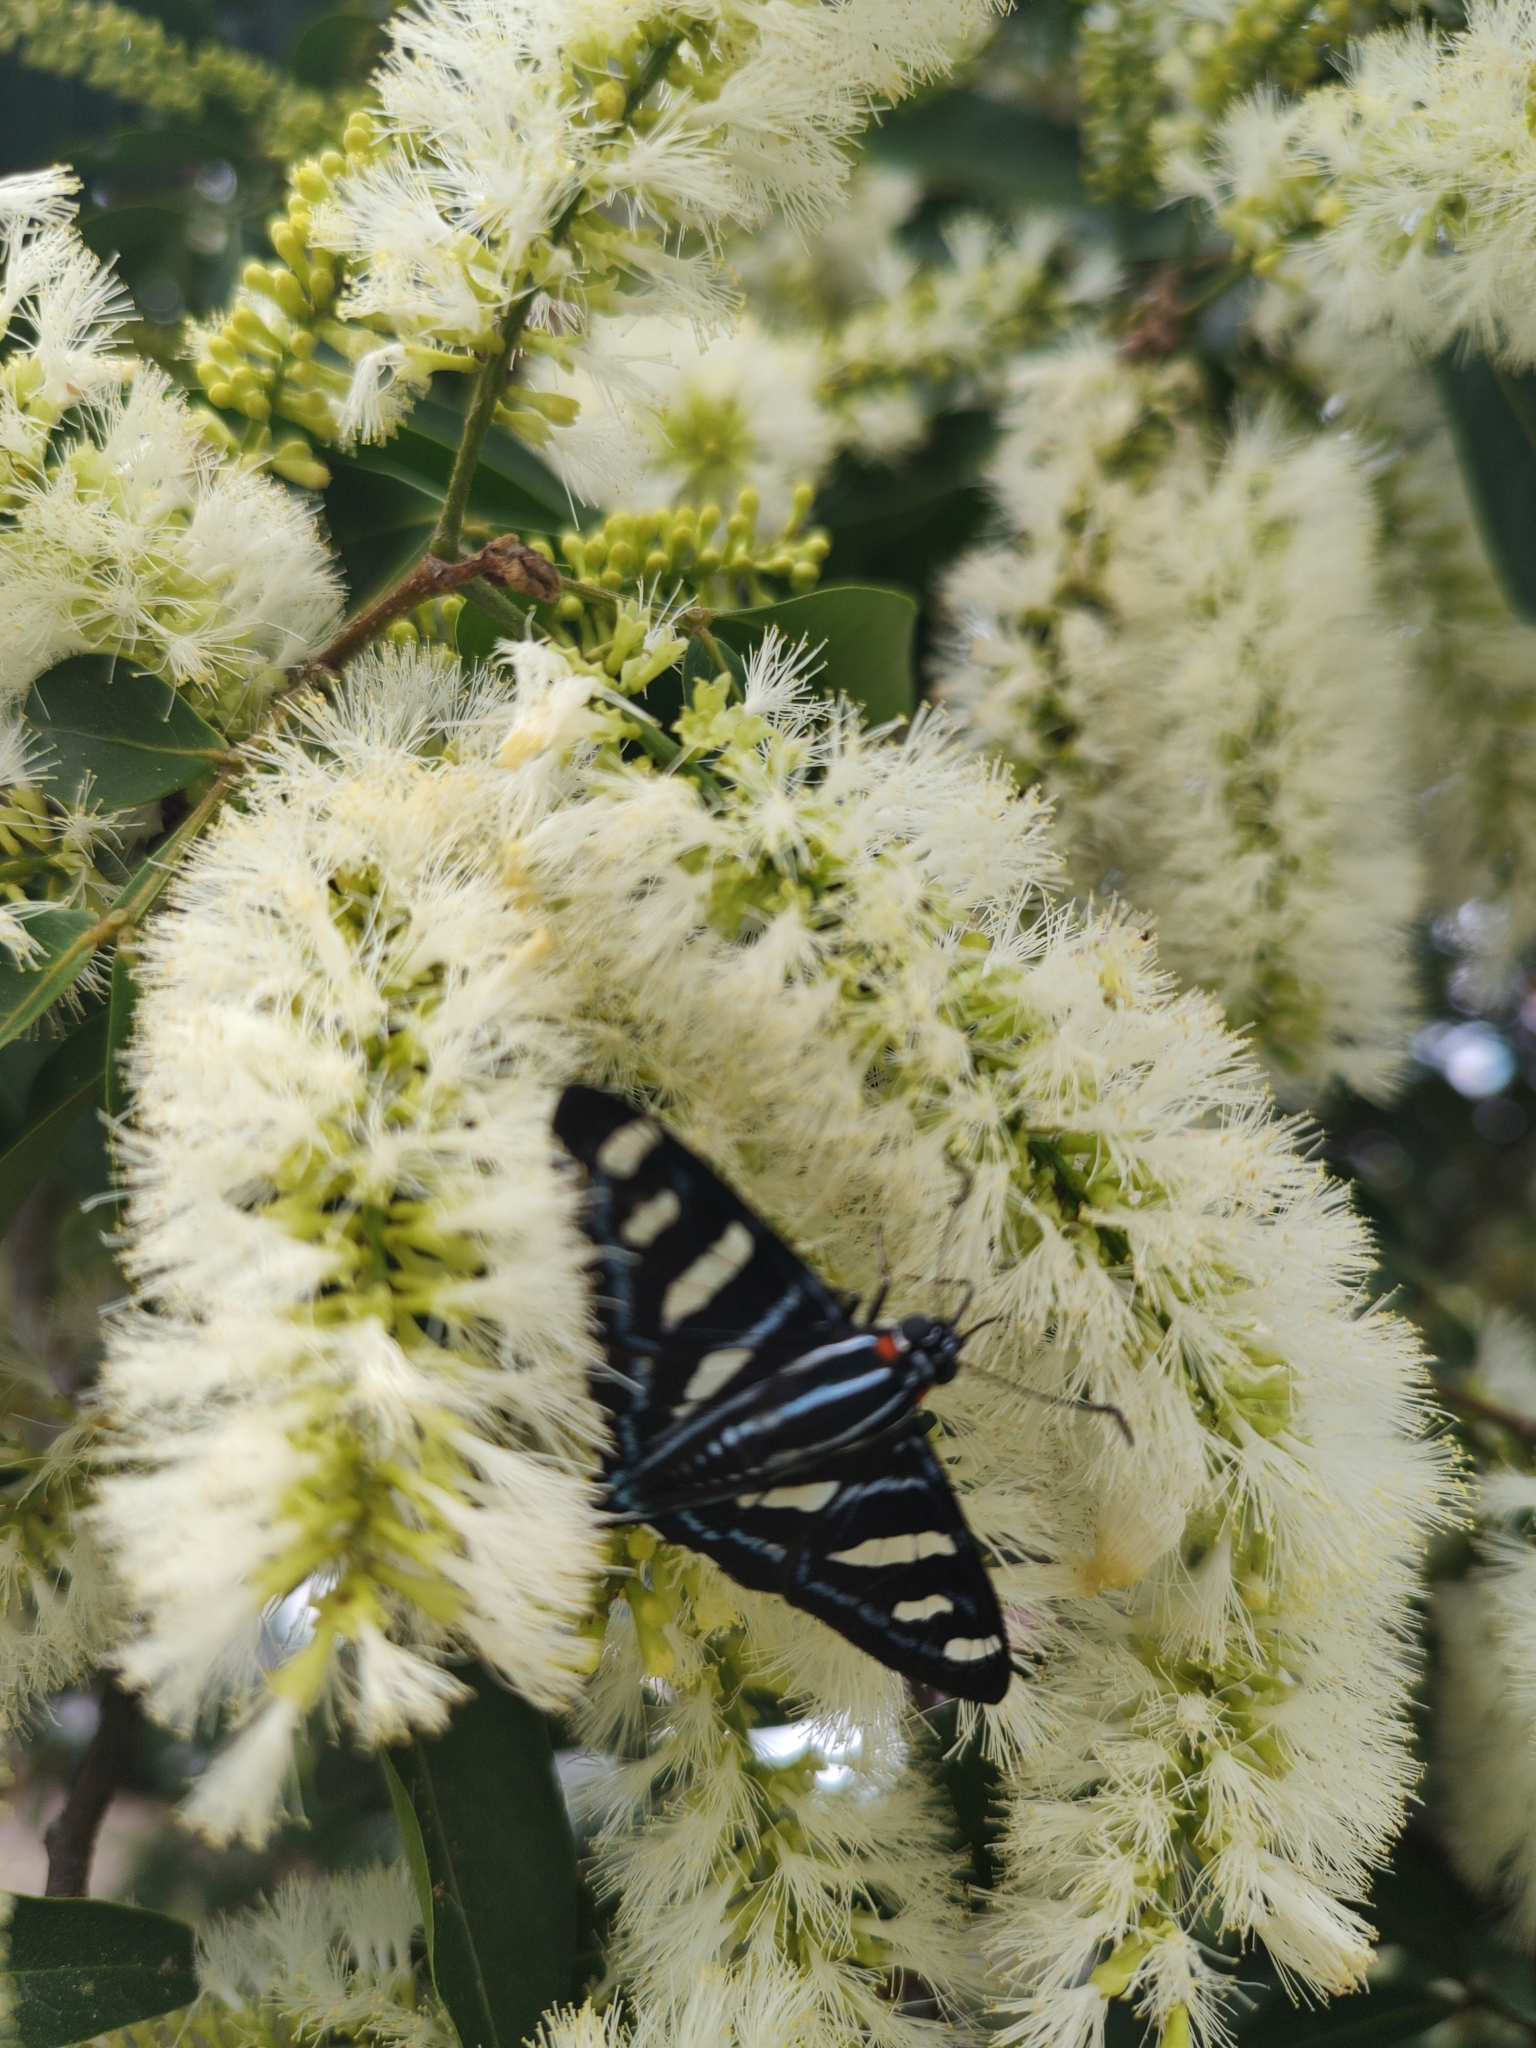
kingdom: Animalia
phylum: Arthropoda
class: Insecta
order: Lepidoptera
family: Hesperiidae
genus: Granila
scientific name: Granila paseas
